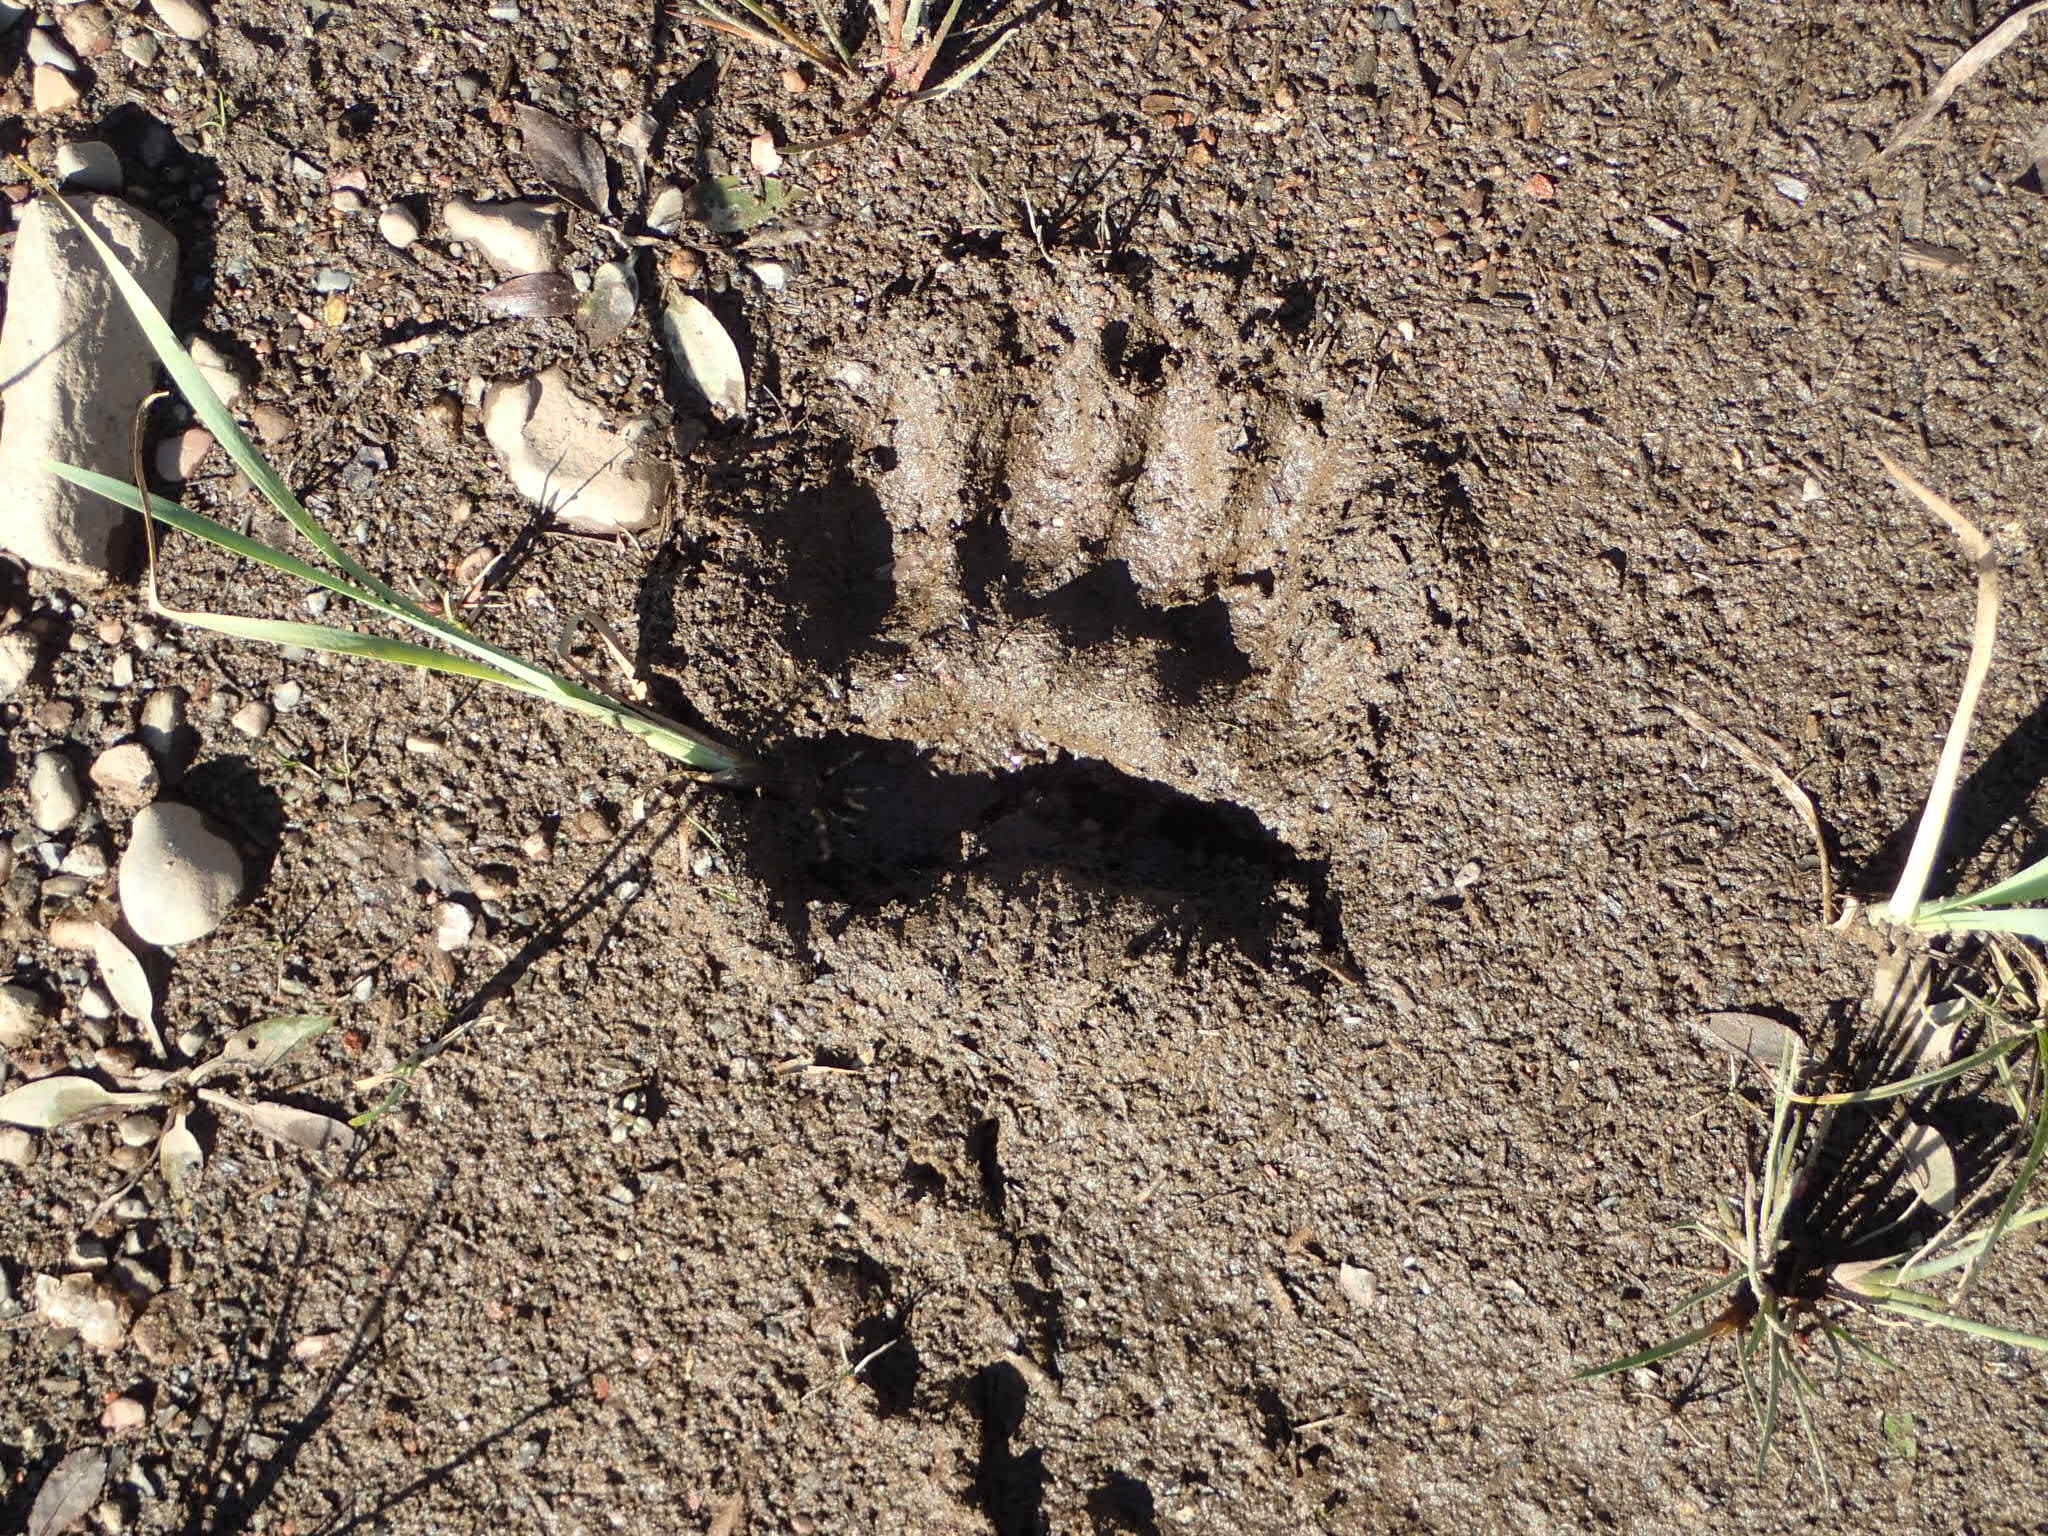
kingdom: Animalia
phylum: Chordata
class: Mammalia
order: Carnivora
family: Ursidae
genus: Ursus
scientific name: Ursus americanus
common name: American black bear
